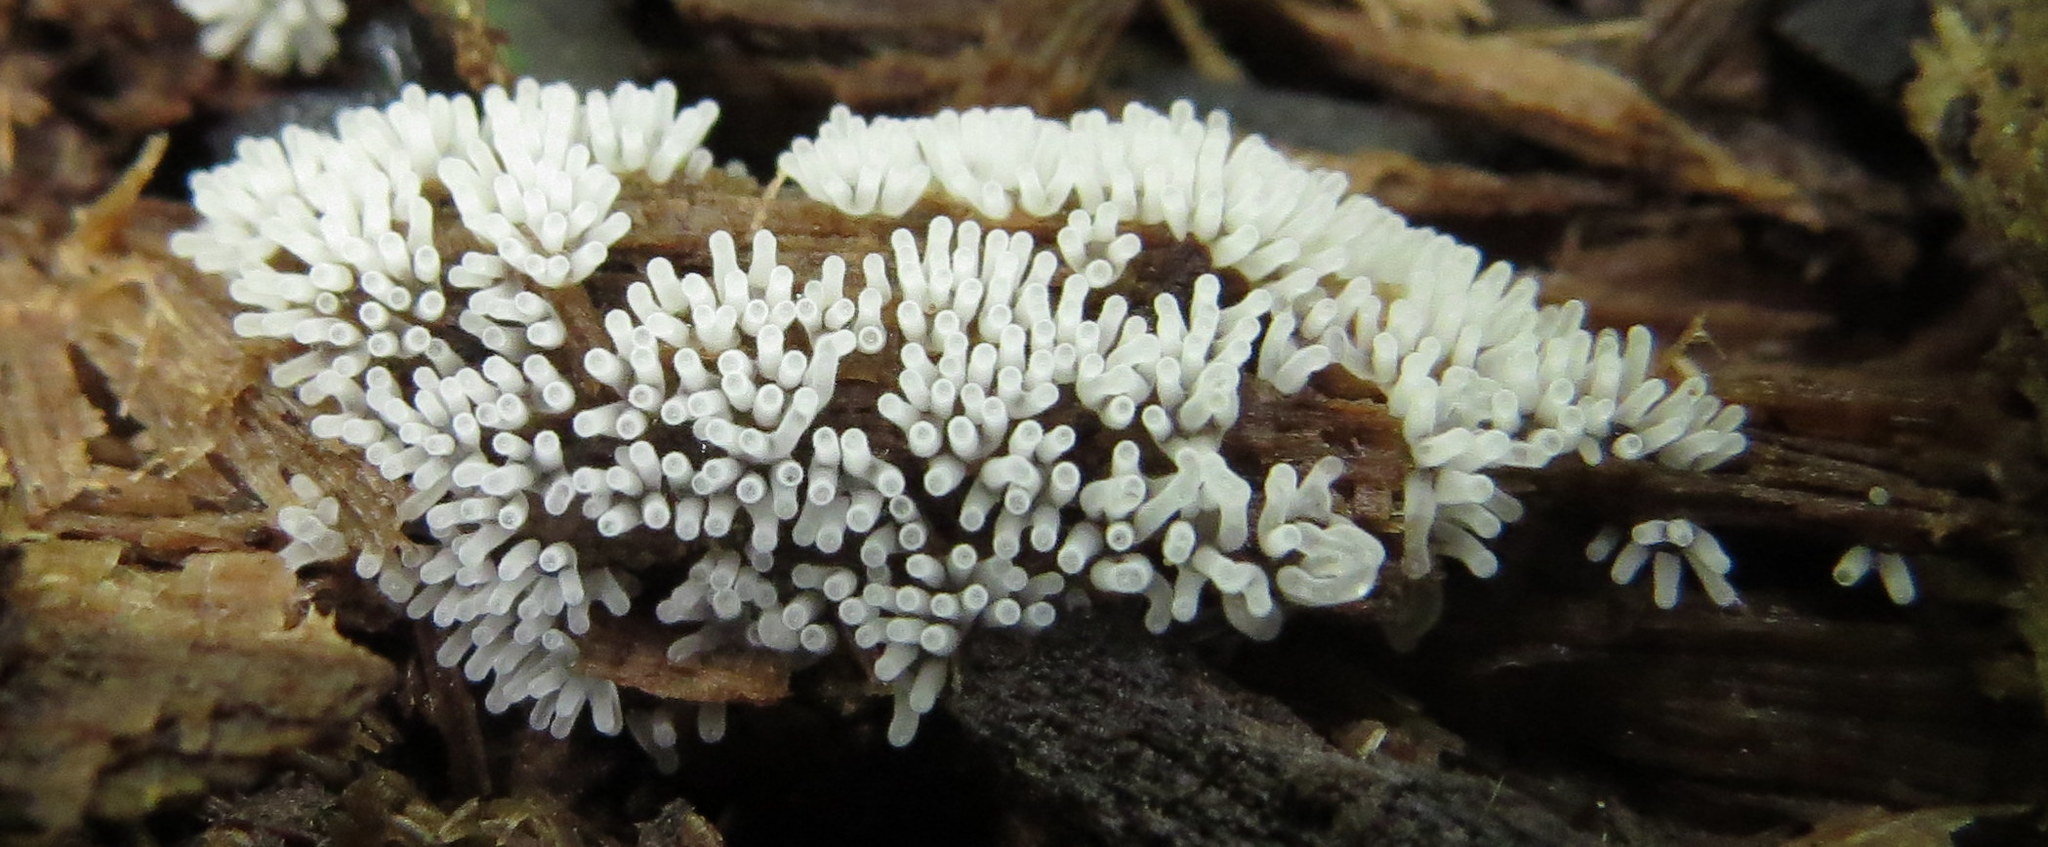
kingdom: Protozoa
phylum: Mycetozoa
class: Protosteliomycetes
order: Ceratiomyxales
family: Ceratiomyxaceae
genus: Ceratiomyxa
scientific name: Ceratiomyxa fruticulosa
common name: Honeycomb coral slime mold
